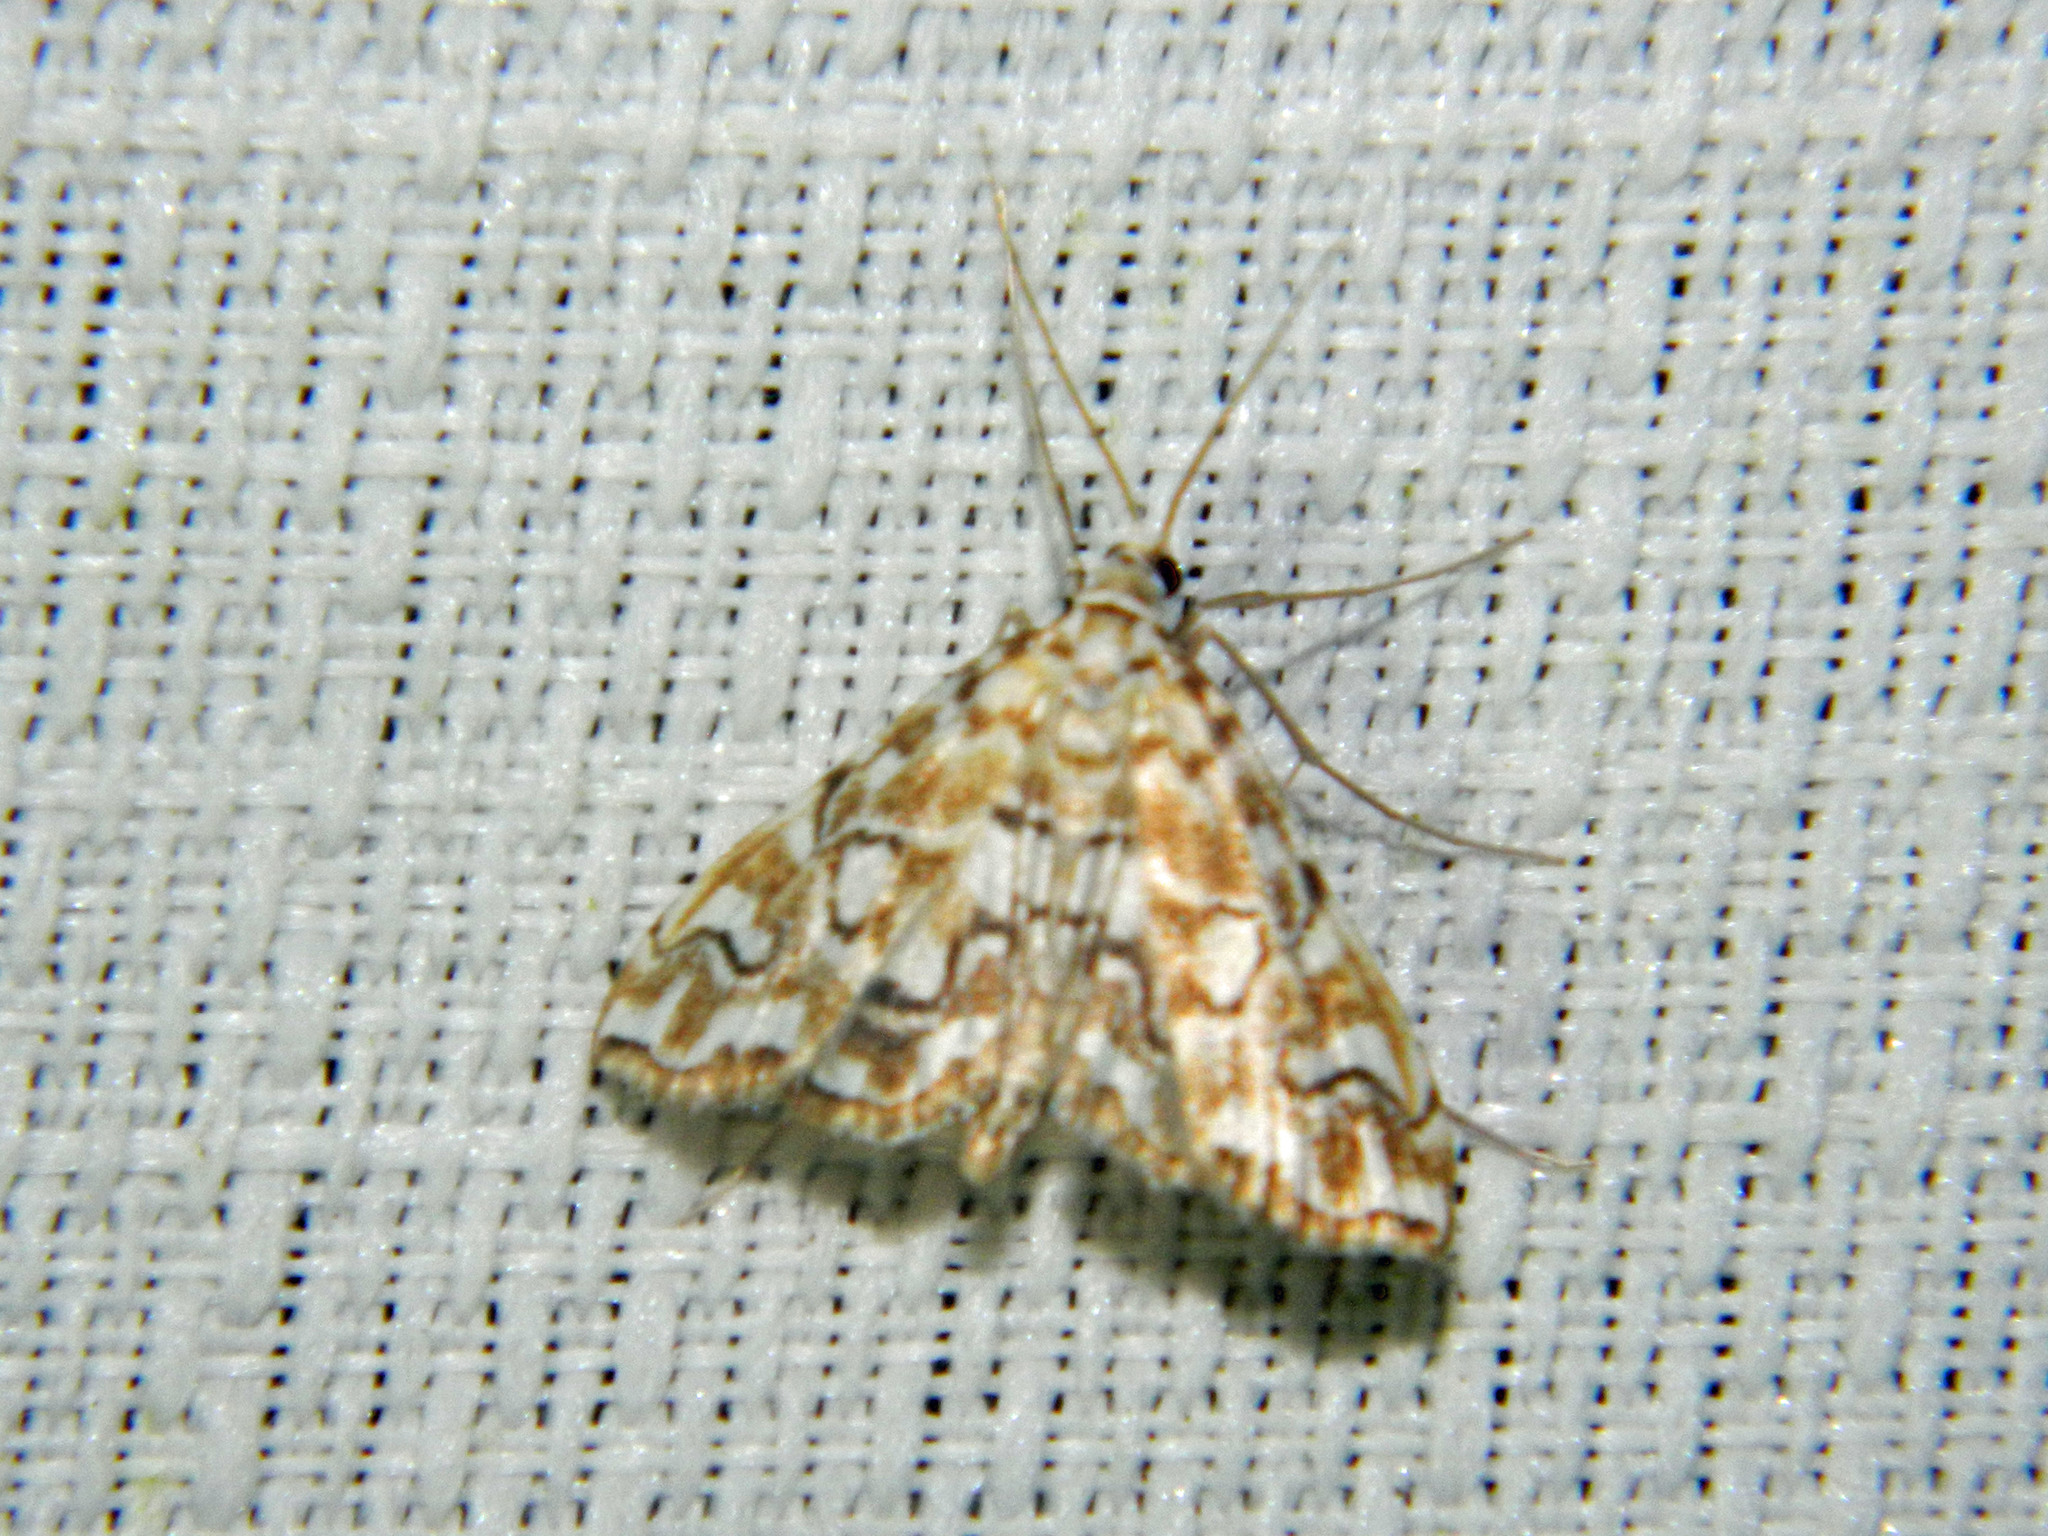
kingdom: Animalia
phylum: Arthropoda
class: Insecta
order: Lepidoptera
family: Crambidae
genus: Elophila
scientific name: Elophila icciusalis
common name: Pondside pyralid moth
